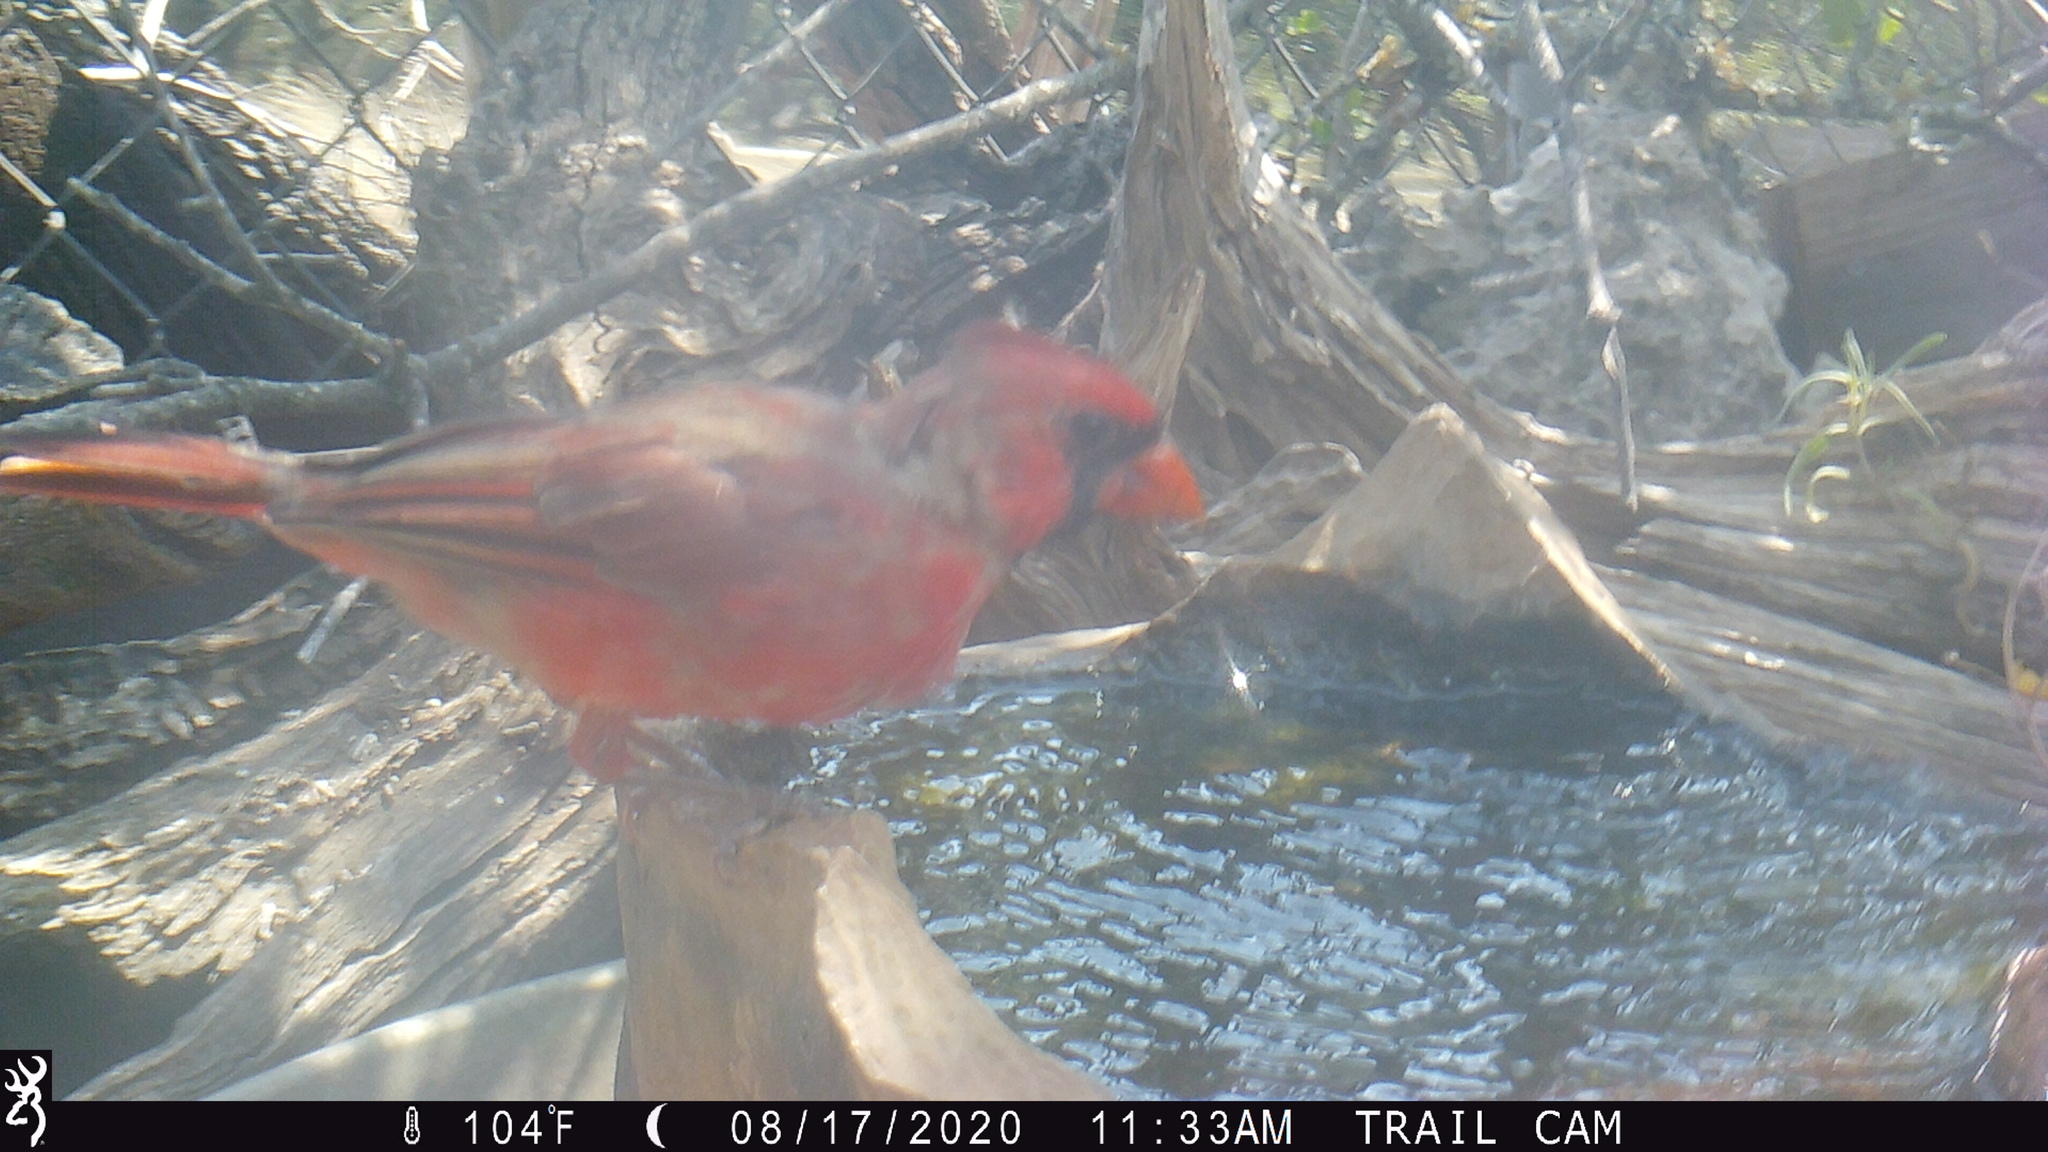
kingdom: Animalia
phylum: Chordata
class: Aves
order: Passeriformes
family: Cardinalidae
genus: Cardinalis
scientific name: Cardinalis cardinalis
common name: Northern cardinal
